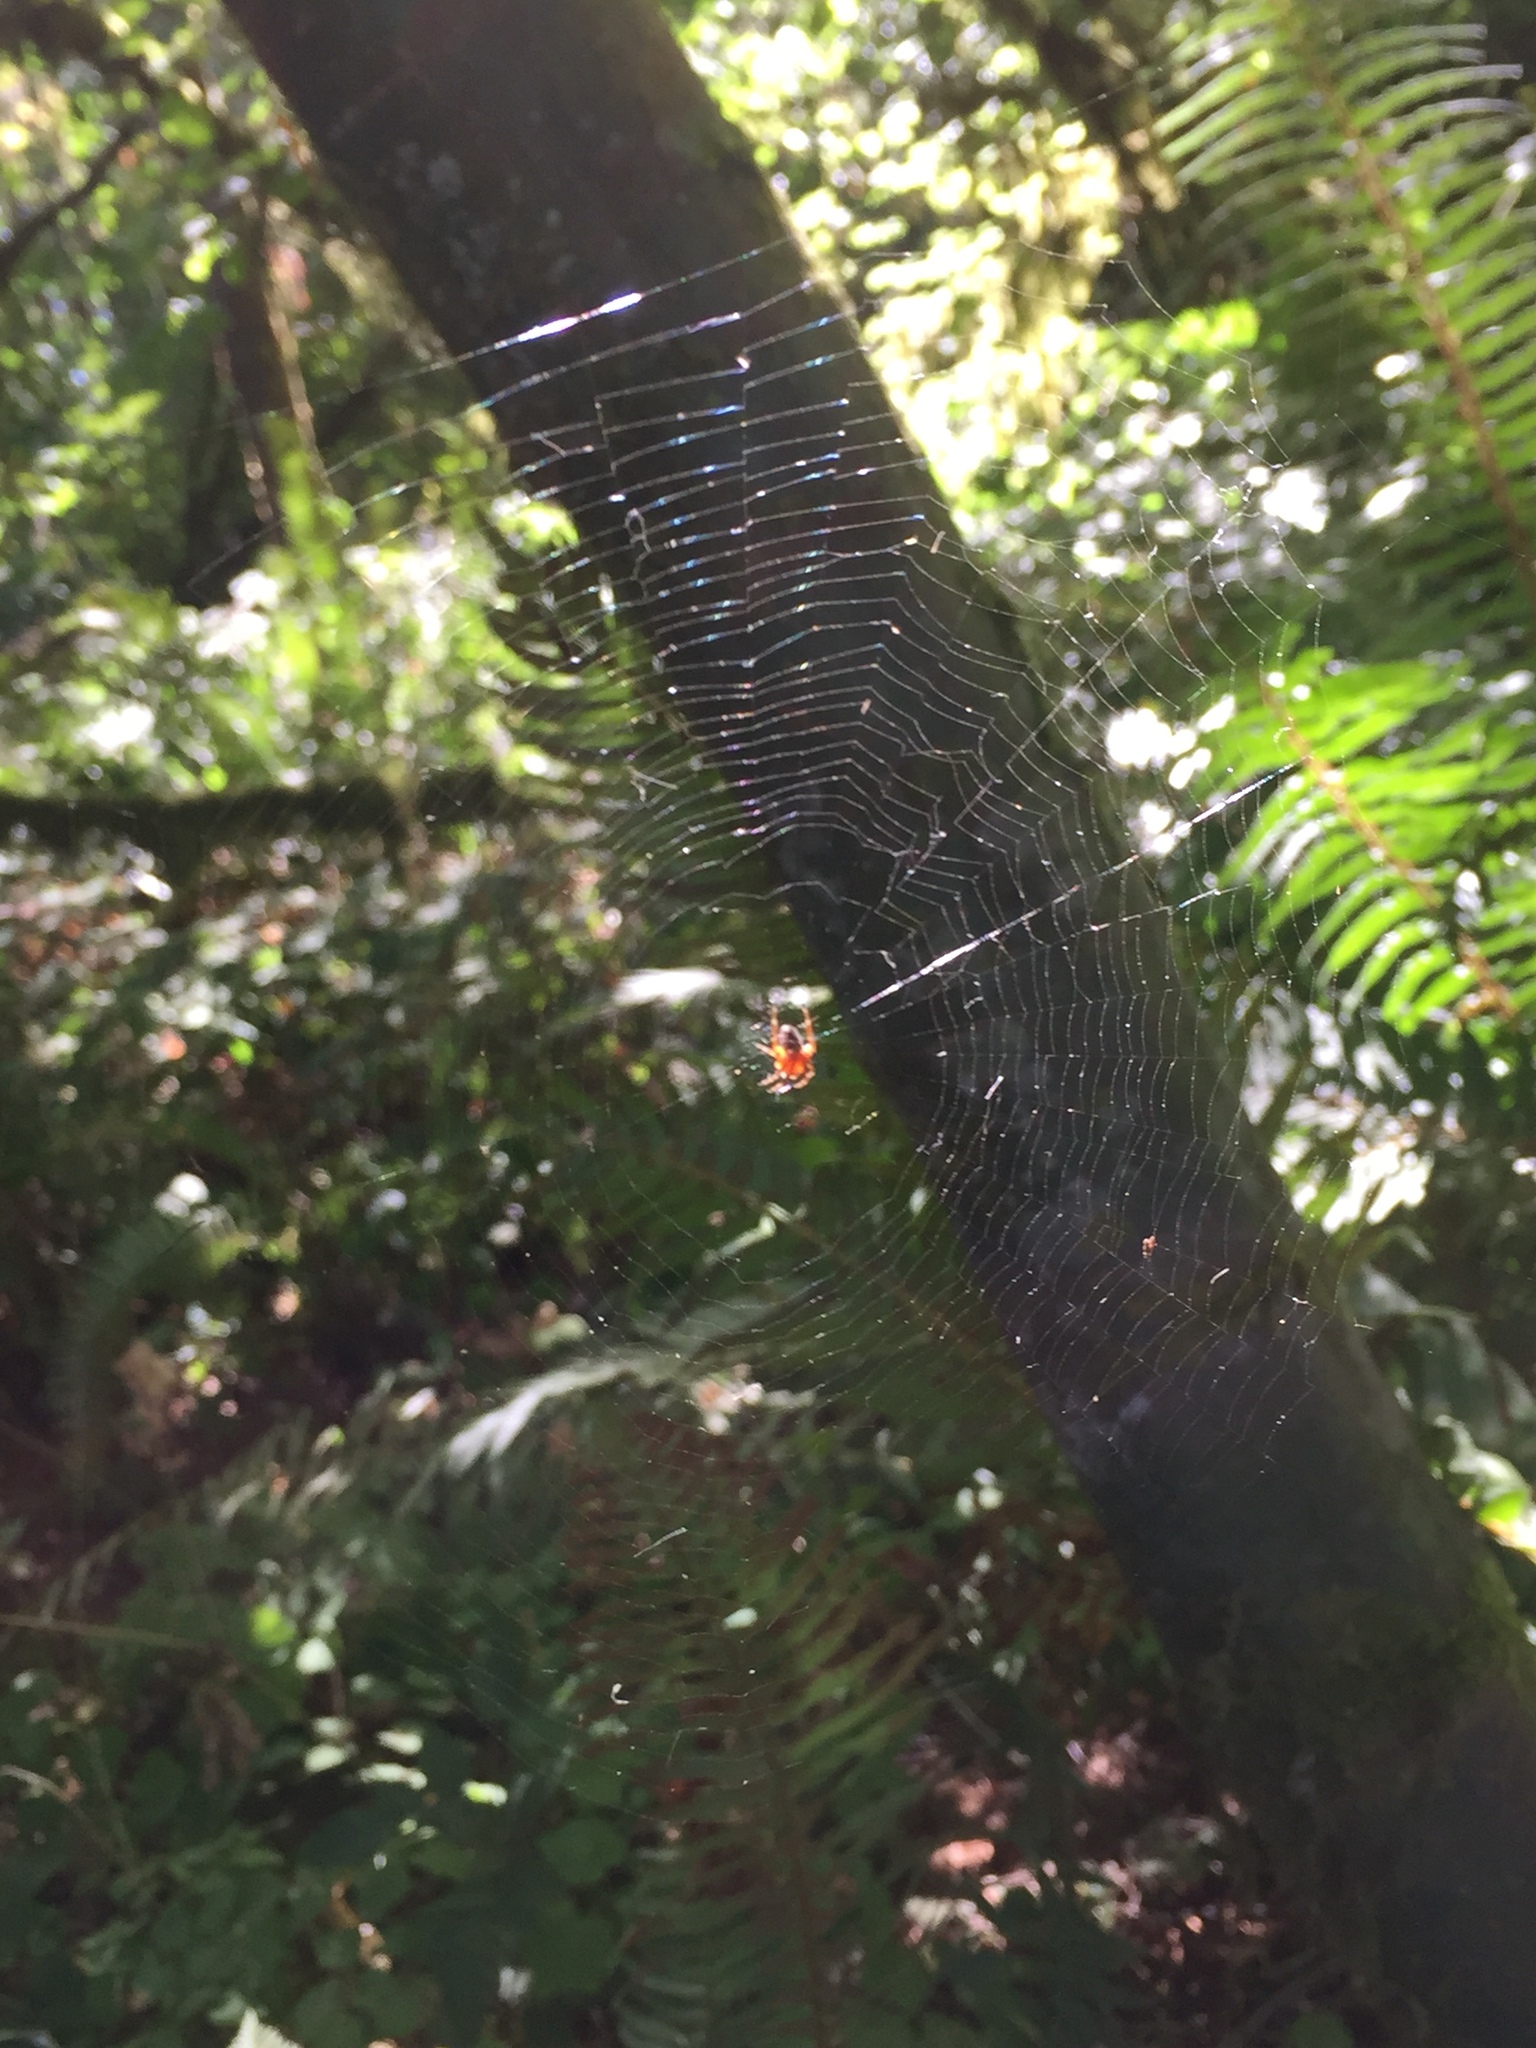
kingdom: Animalia
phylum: Arthropoda
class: Arachnida
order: Araneae
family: Araneidae
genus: Araneus
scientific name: Araneus diadematus
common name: Cross orbweaver
